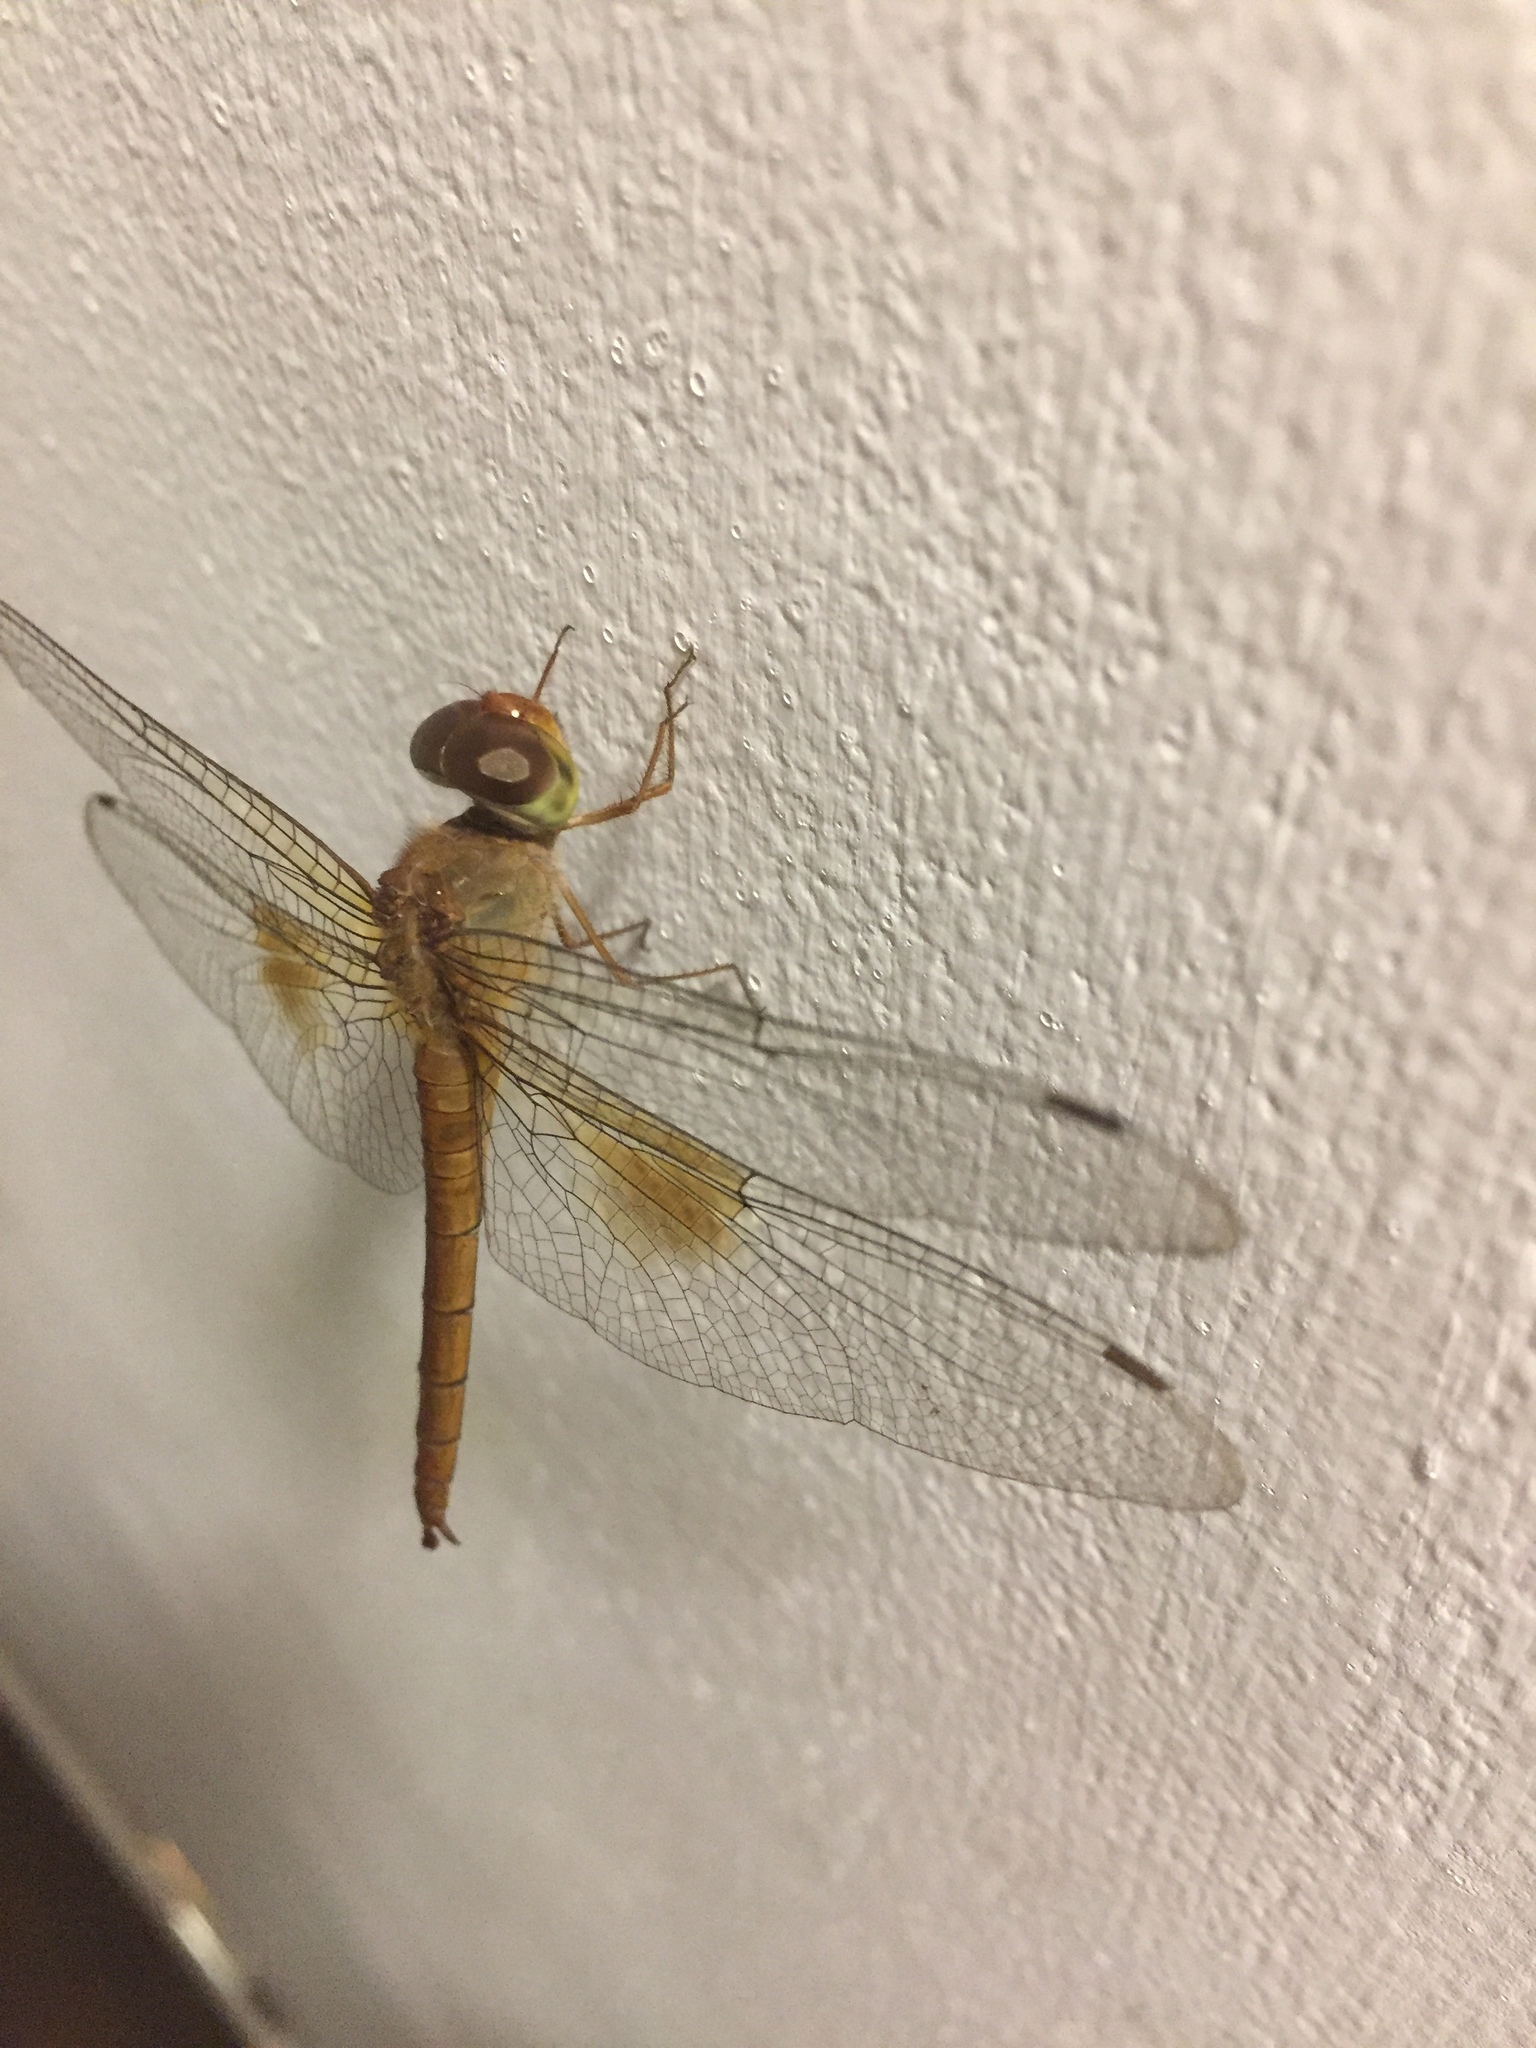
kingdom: Animalia
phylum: Arthropoda
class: Insecta
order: Odonata
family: Libellulidae
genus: Tholymis
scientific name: Tholymis tillarga
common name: Coral-tailed cloud wing
